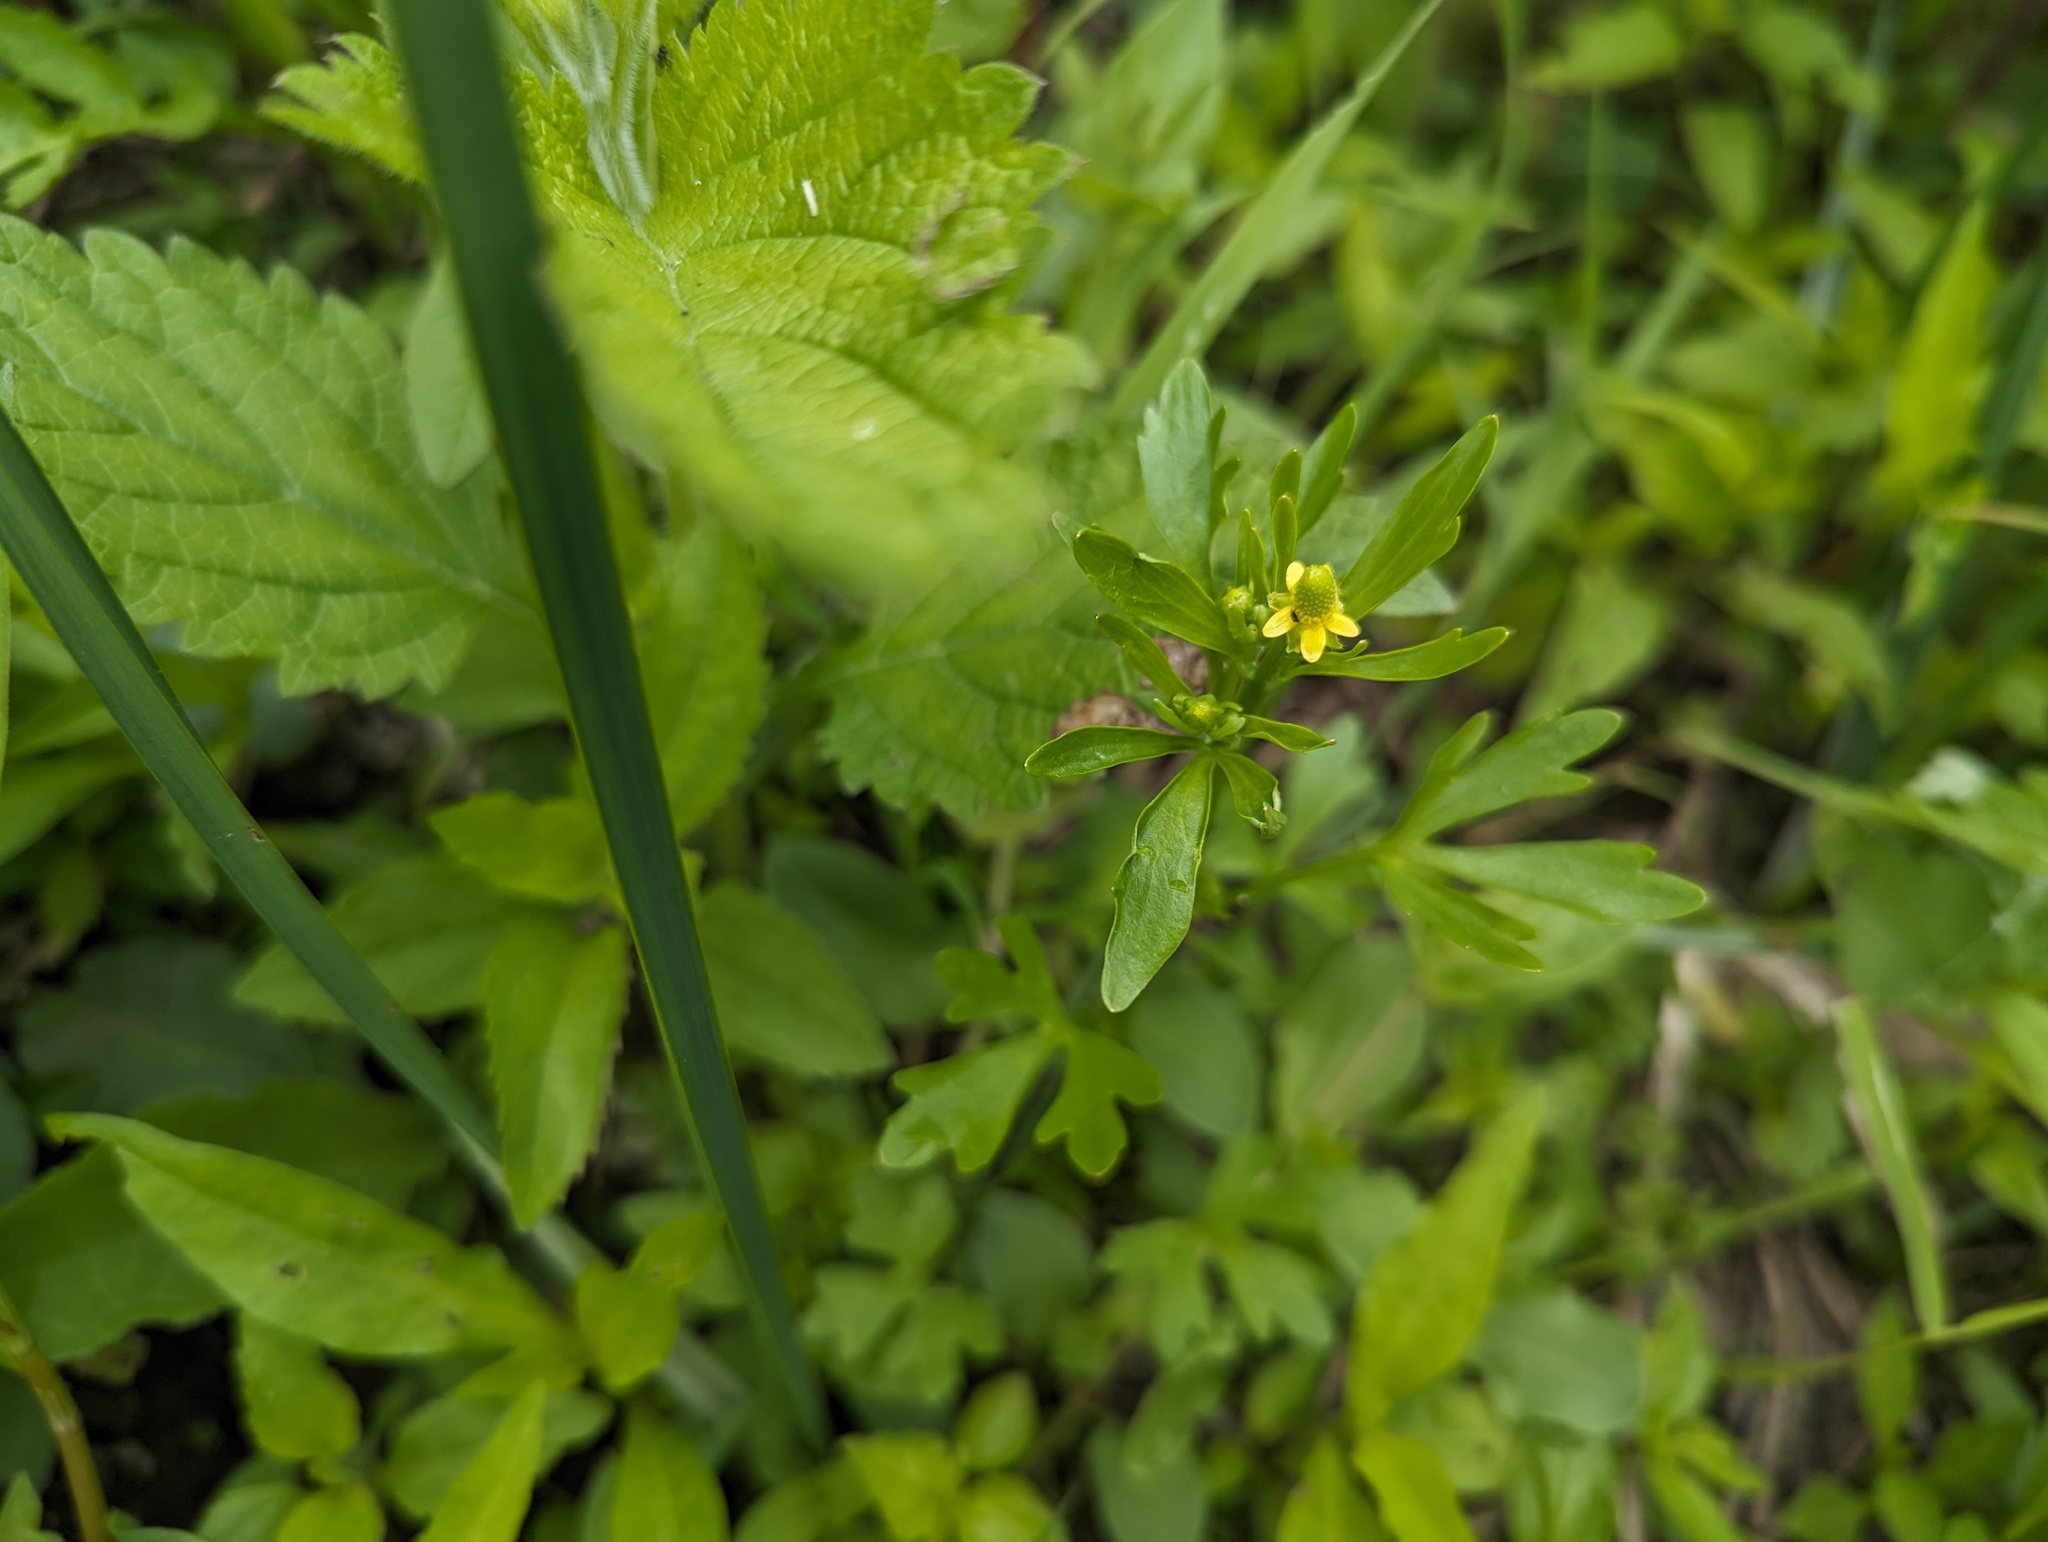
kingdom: Plantae
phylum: Tracheophyta
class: Magnoliopsida
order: Ranunculales
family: Ranunculaceae
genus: Ranunculus
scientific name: Ranunculus sceleratus
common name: Celery-leaved buttercup
